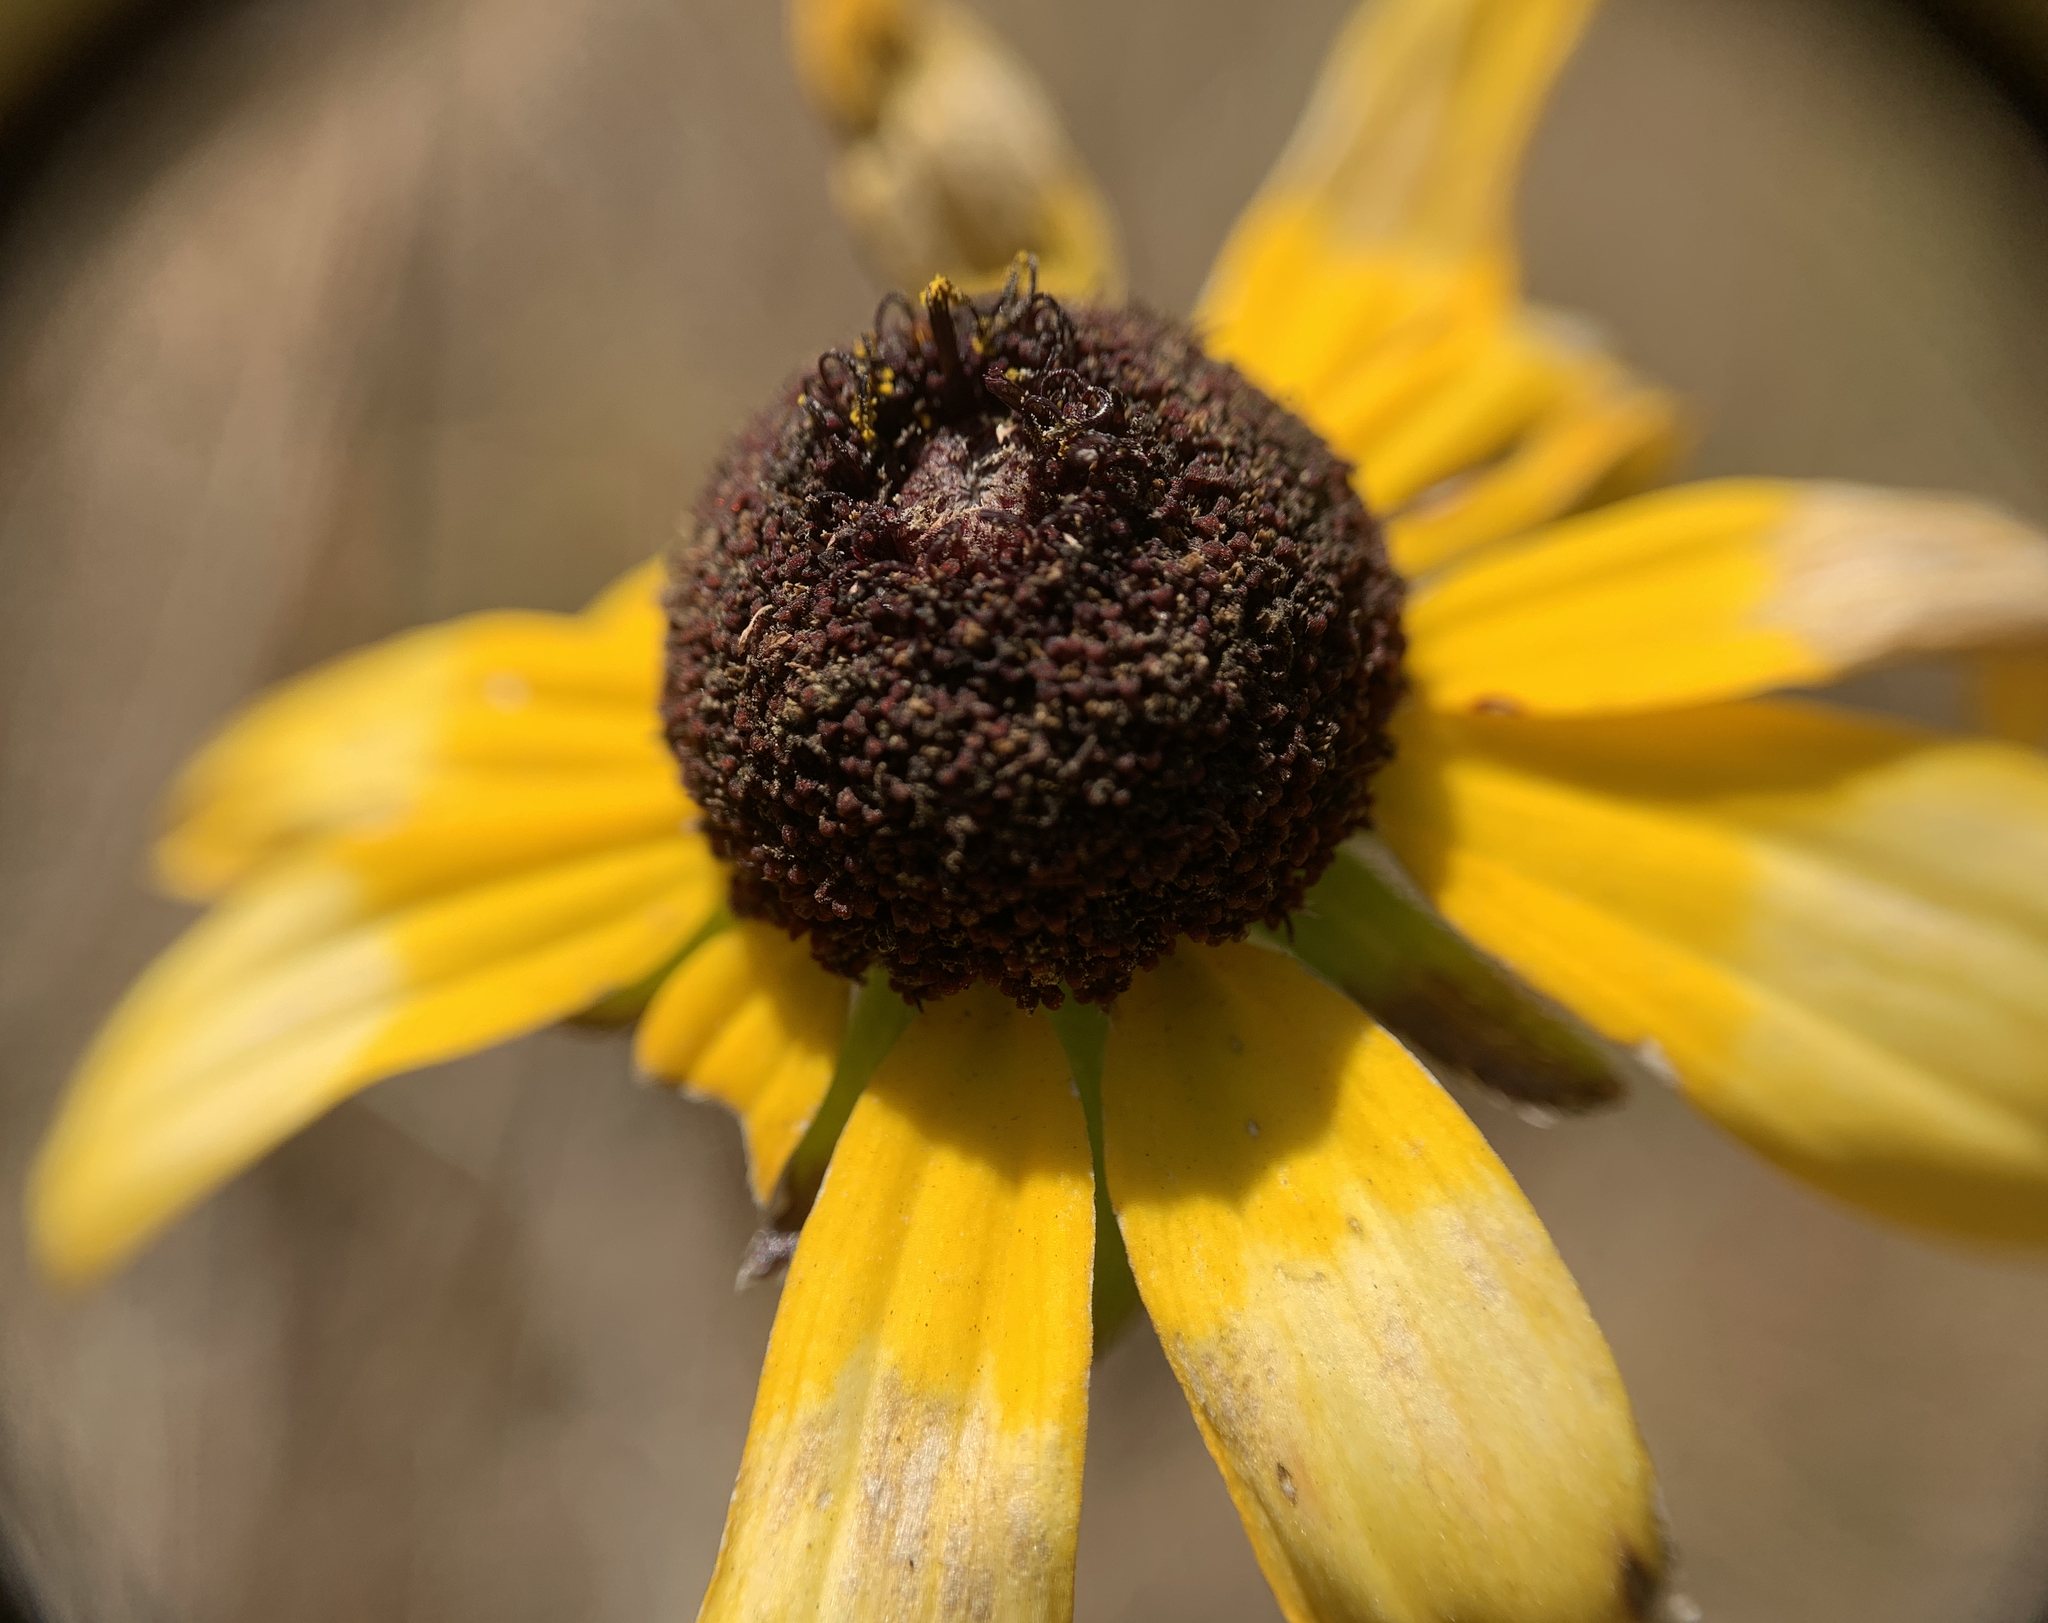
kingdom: Plantae
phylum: Tracheophyta
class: Magnoliopsida
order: Asterales
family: Asteraceae
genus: Rudbeckia
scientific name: Rudbeckia hirta
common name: Black-eyed-susan
